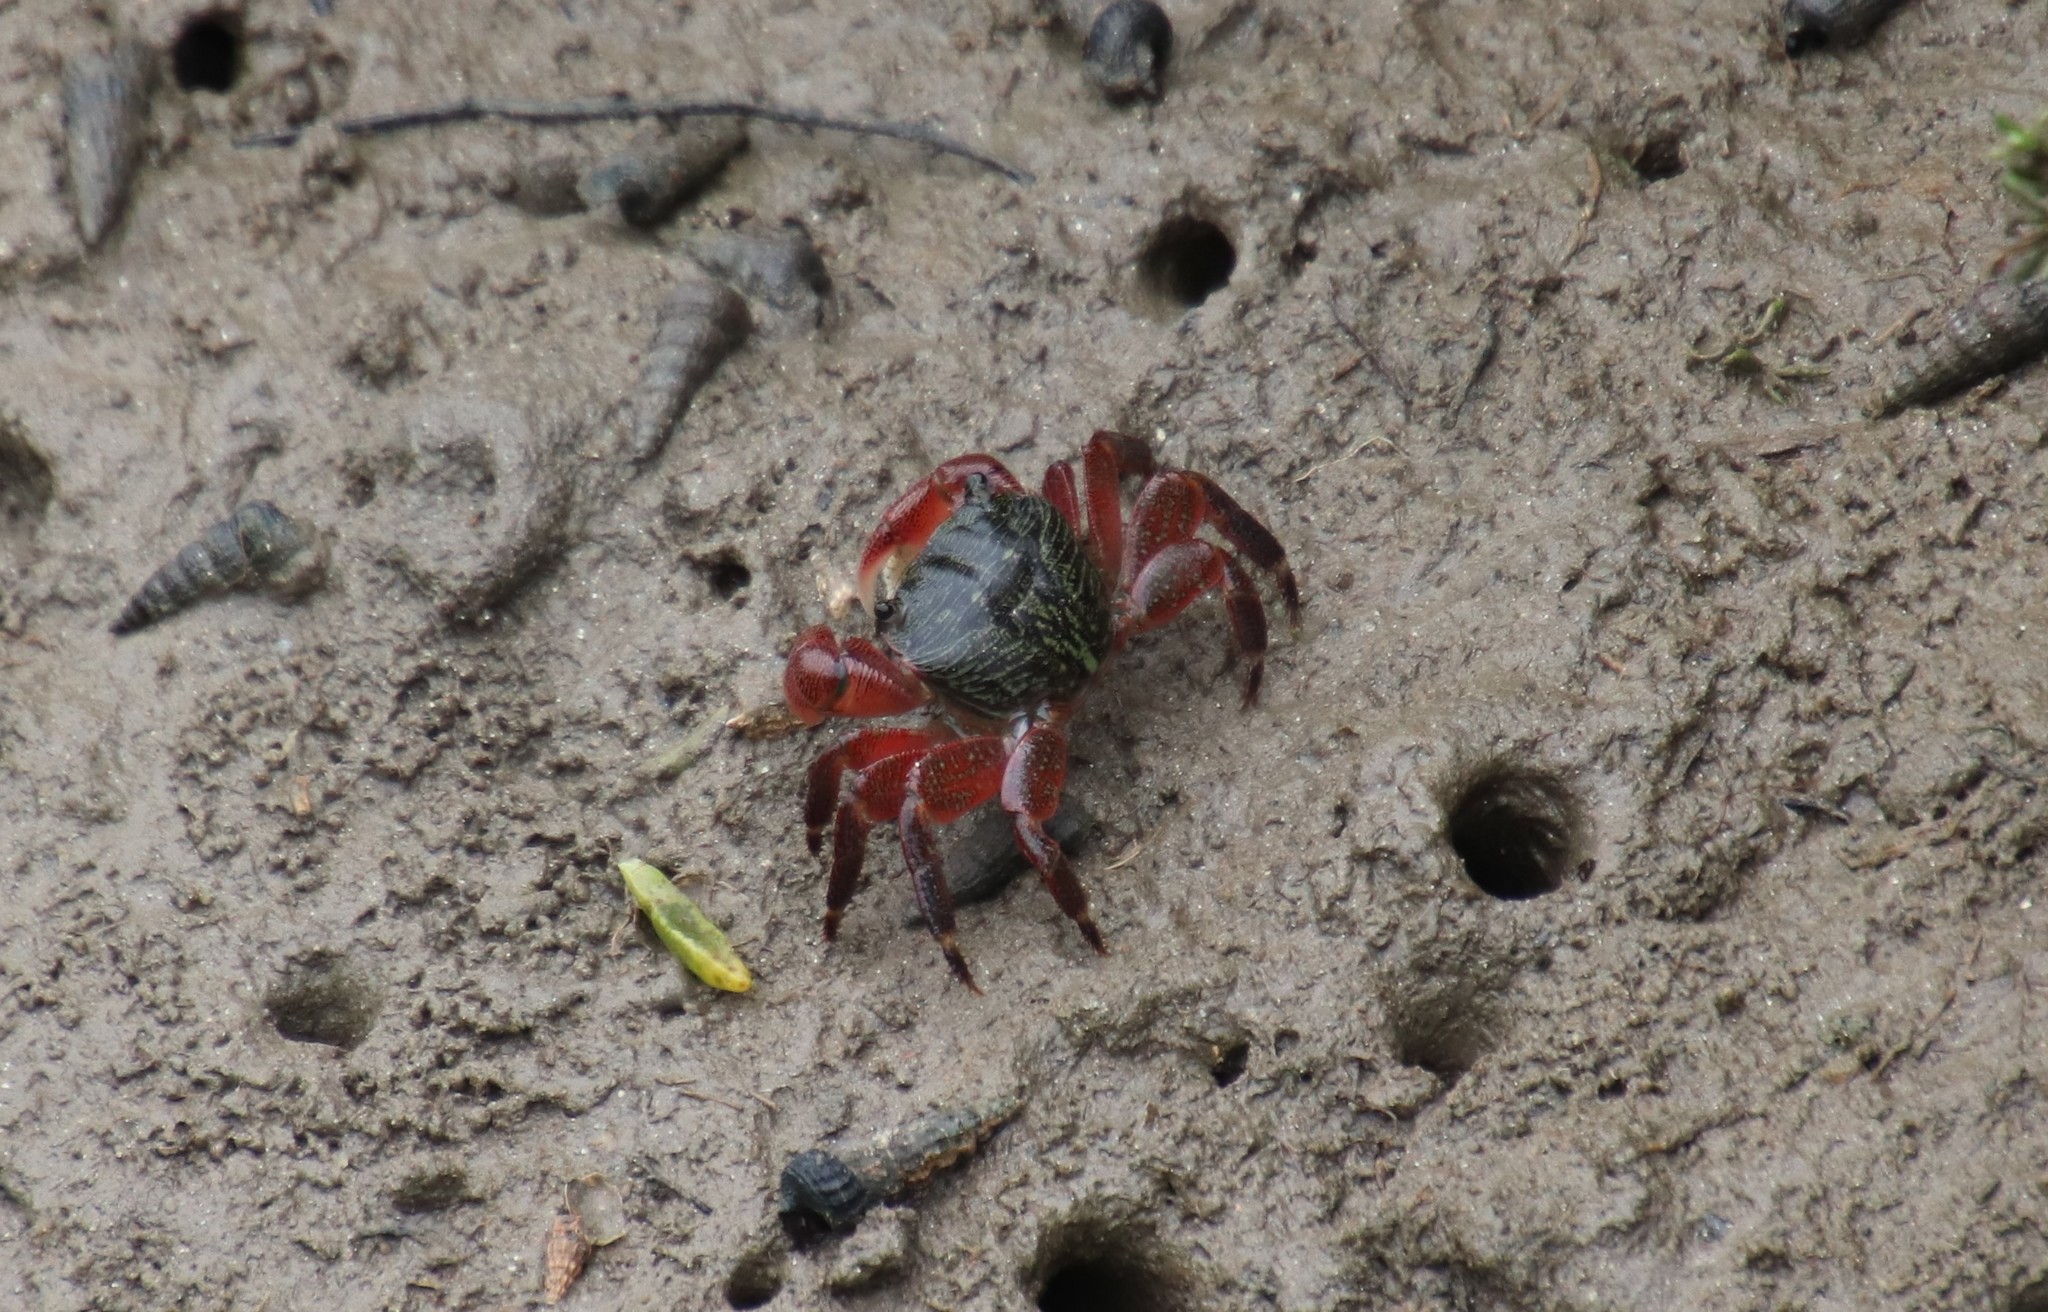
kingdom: Animalia
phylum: Arthropoda
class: Malacostraca
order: Decapoda
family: Grapsidae
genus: Pachygrapsus
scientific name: Pachygrapsus crassipes
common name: Striped shore crab
